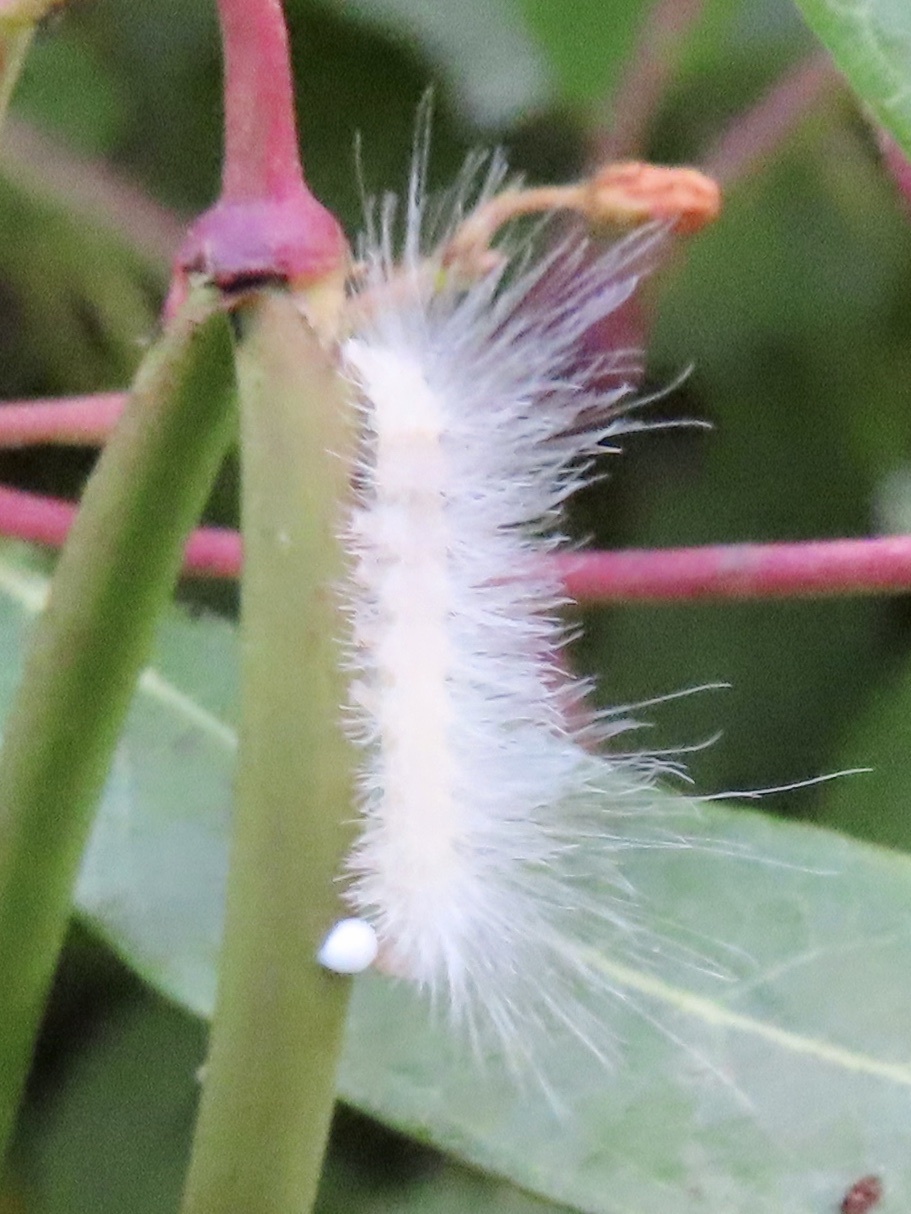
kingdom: Animalia
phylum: Arthropoda
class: Insecta
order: Lepidoptera
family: Erebidae
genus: Cycnia
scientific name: Cycnia tenera
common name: Delicate cycnia moth
